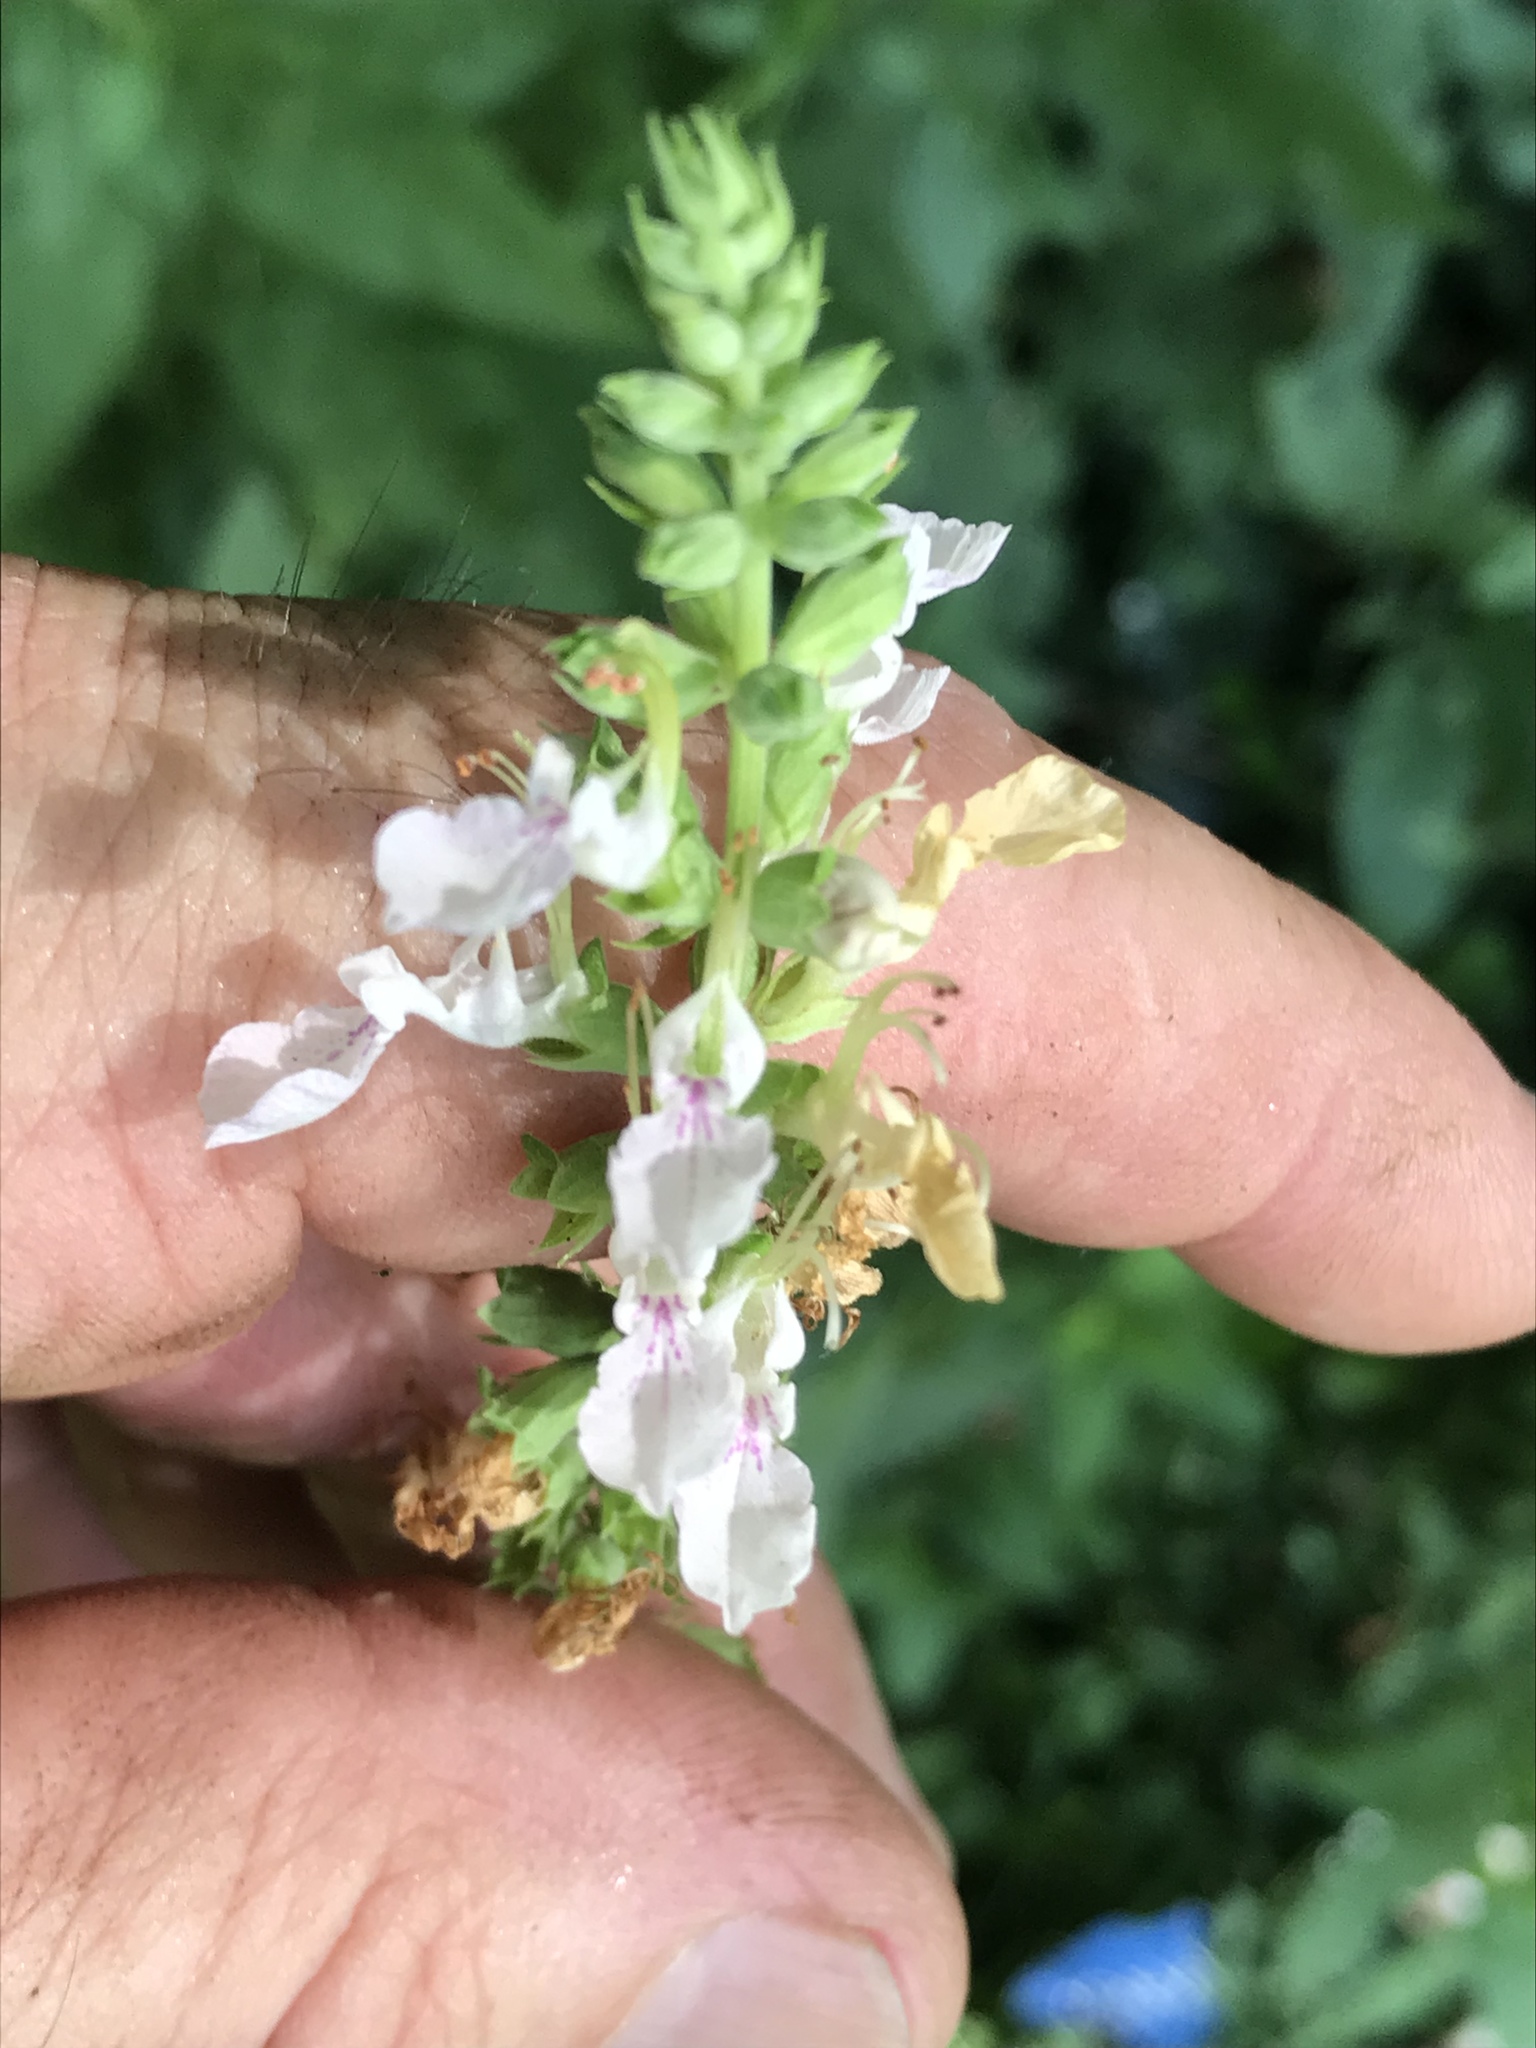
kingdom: Plantae
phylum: Tracheophyta
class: Magnoliopsida
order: Lamiales
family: Lamiaceae
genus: Teucrium
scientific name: Teucrium canadense
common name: American germander
